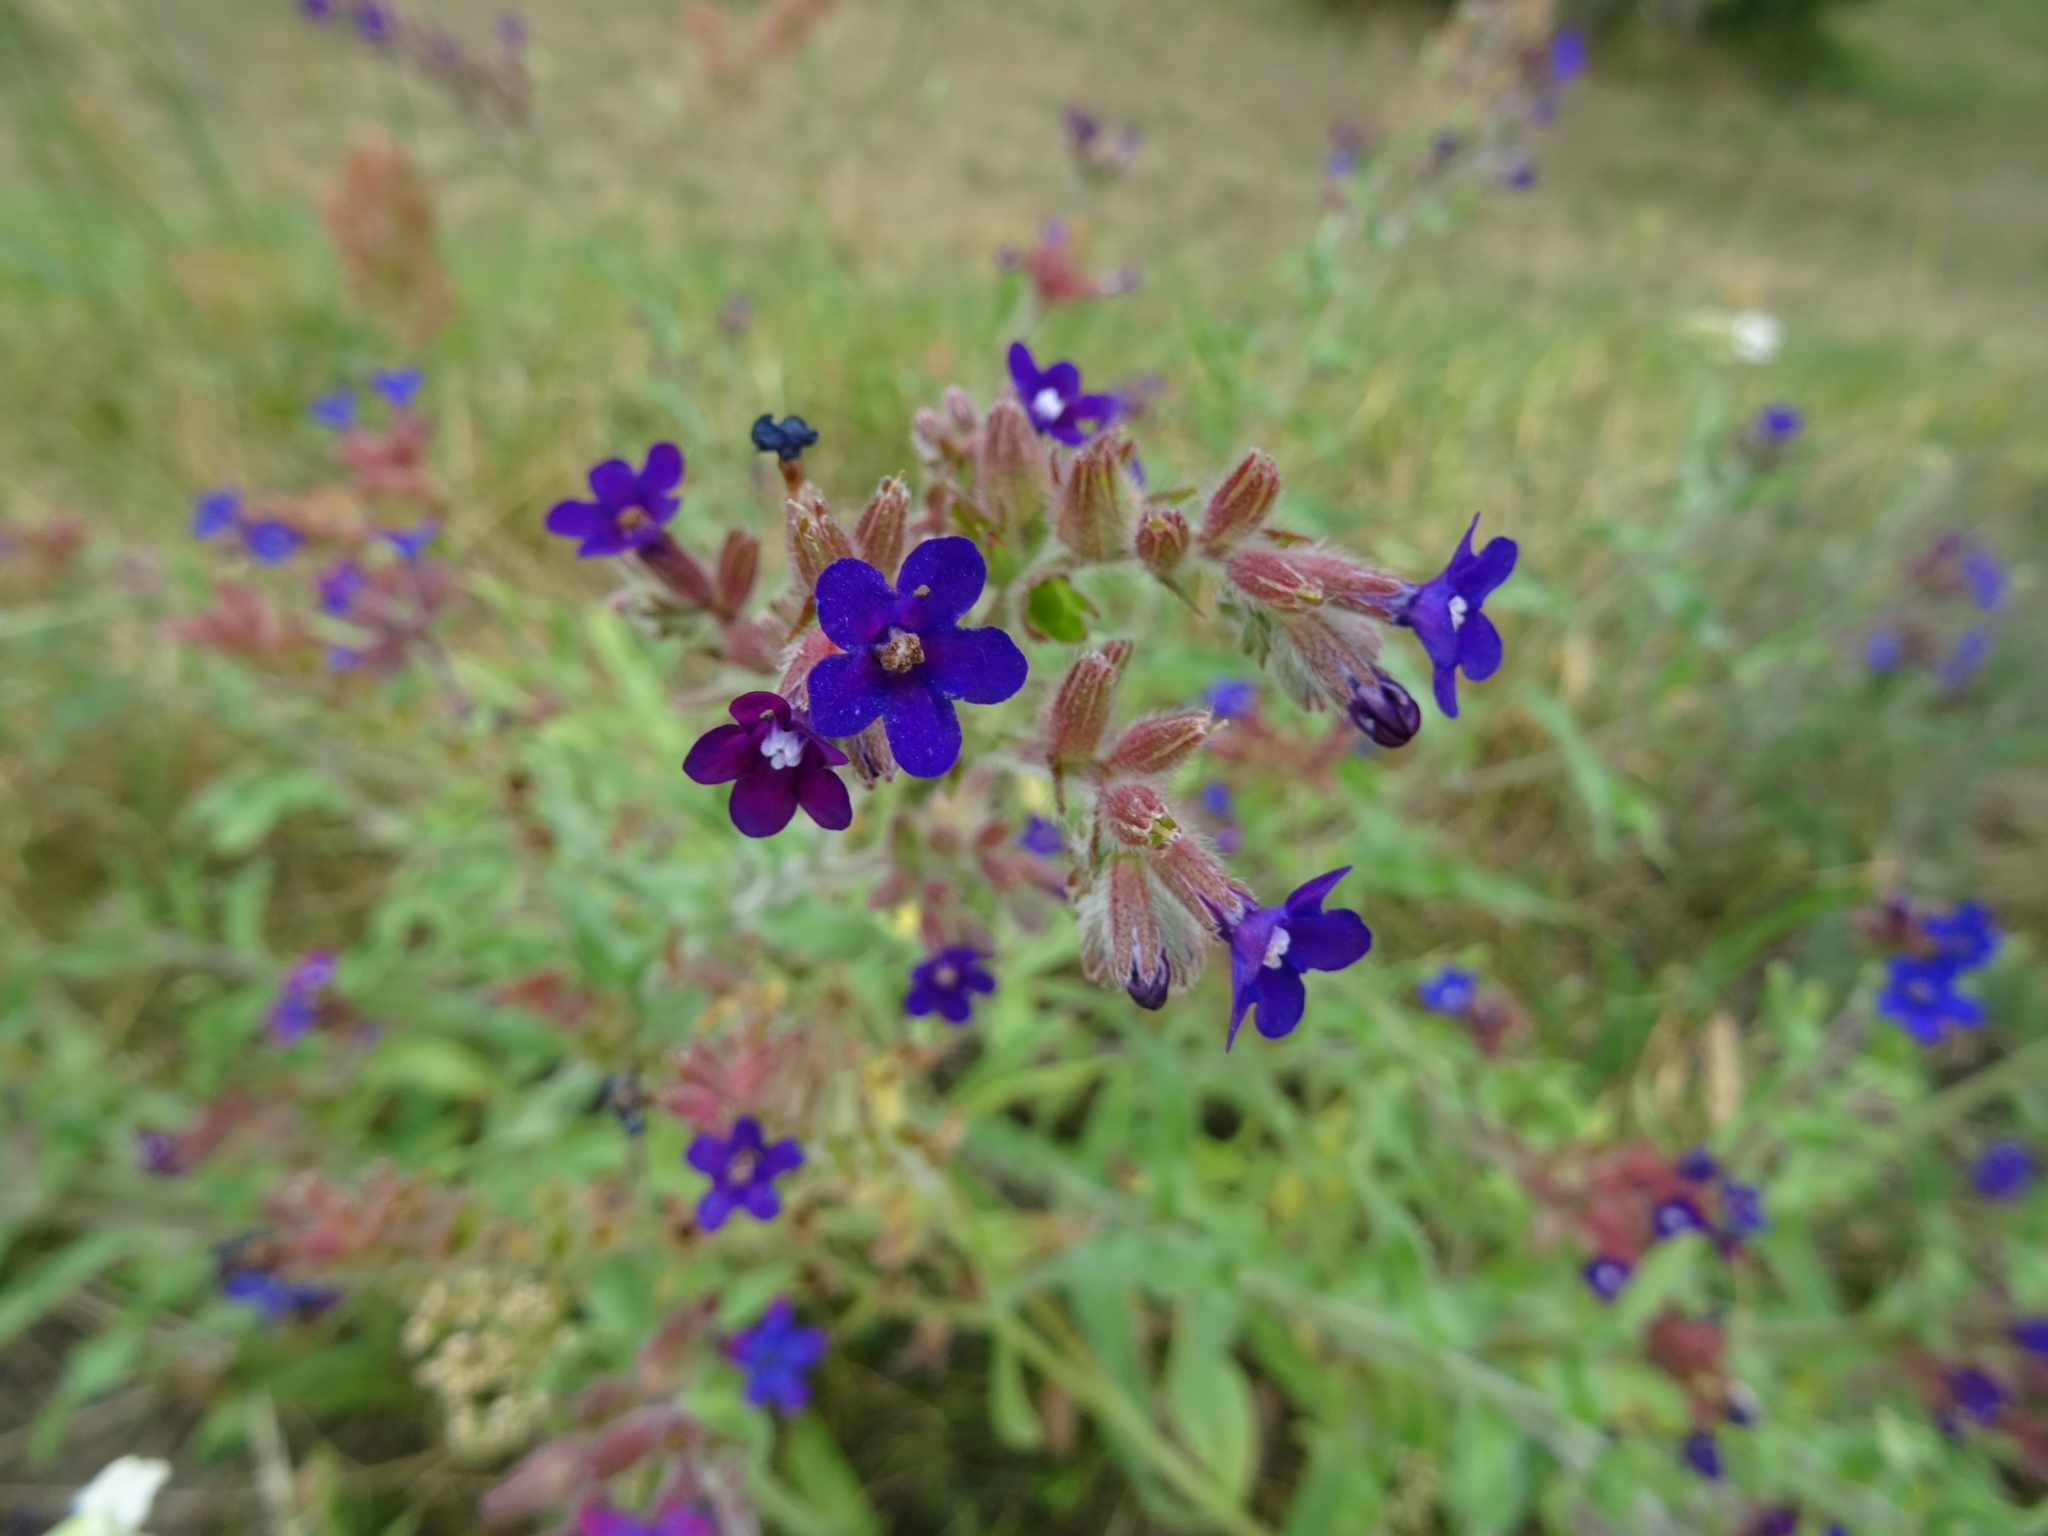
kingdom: Plantae
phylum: Tracheophyta
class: Magnoliopsida
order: Boraginales
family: Boraginaceae
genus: Anchusa
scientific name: Anchusa officinalis
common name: Alkanet
